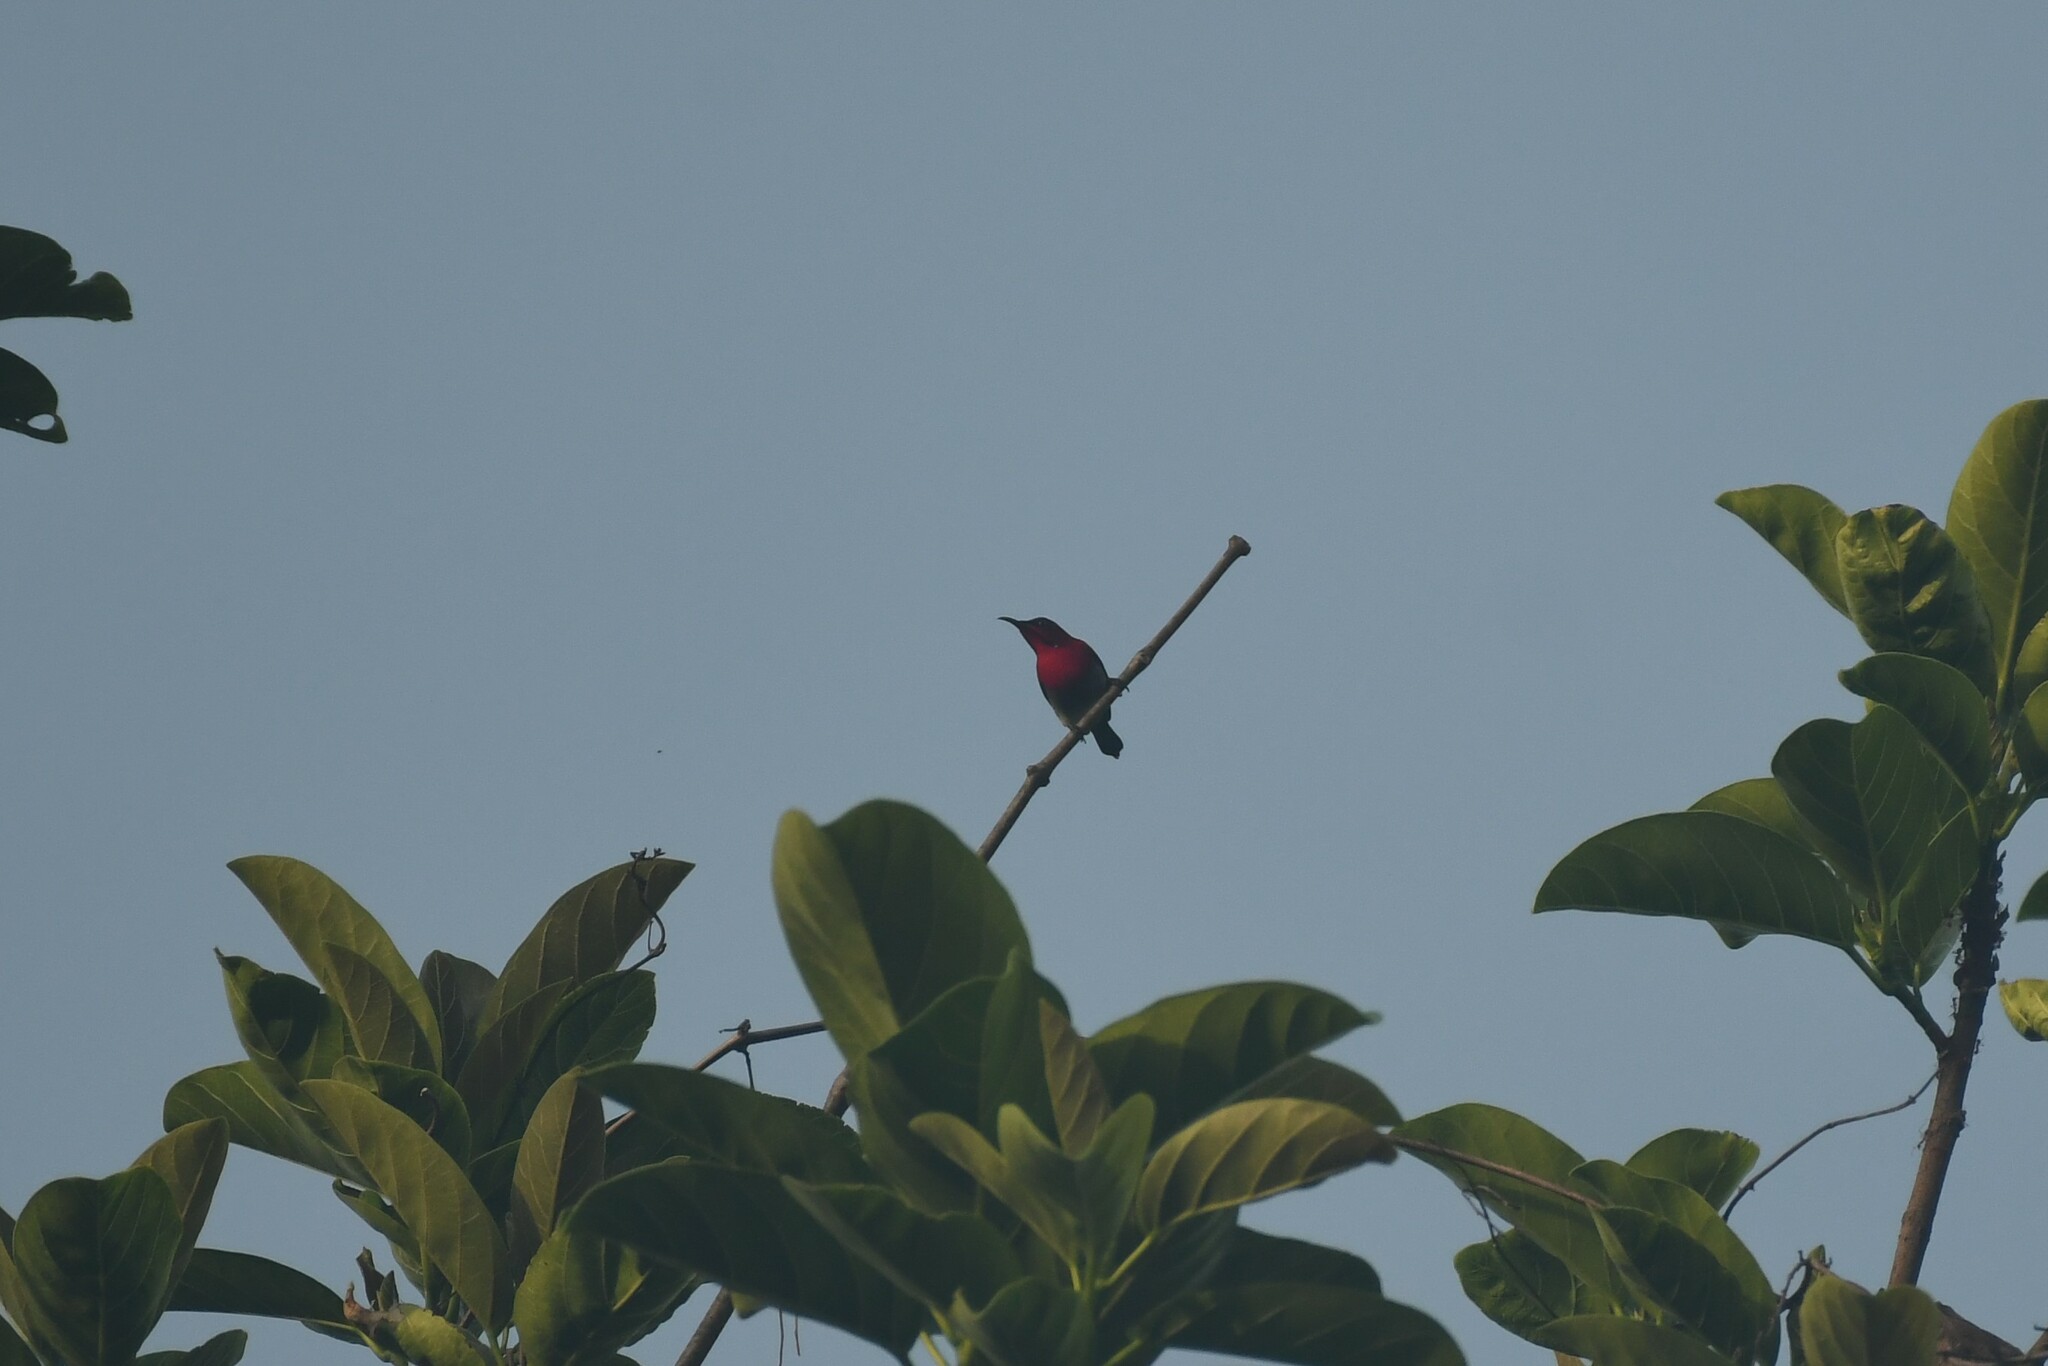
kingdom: Animalia
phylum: Chordata
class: Aves
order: Passeriformes
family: Nectariniidae
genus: Aethopyga
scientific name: Aethopyga siparaja
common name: Crimson sunbird
